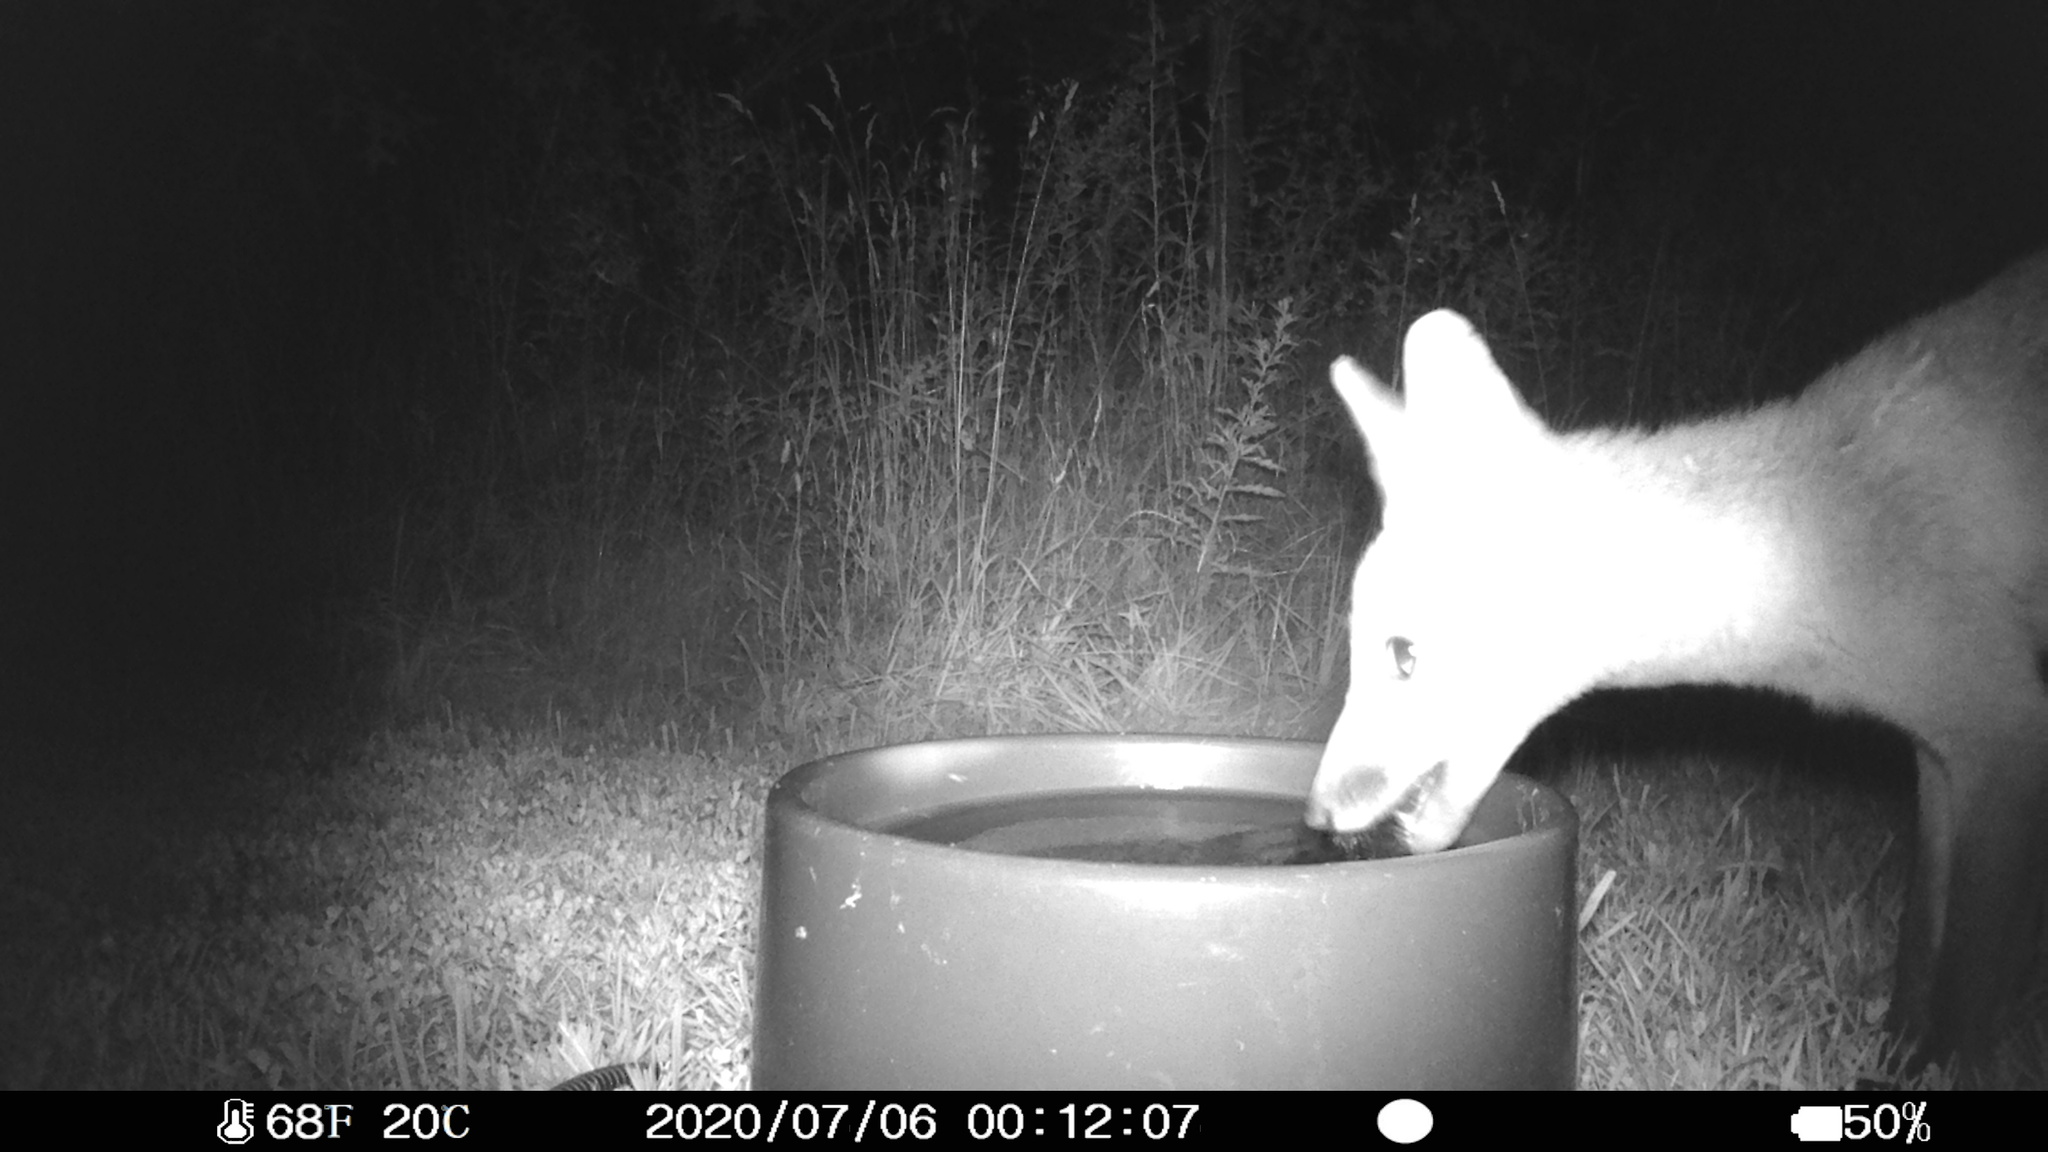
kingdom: Animalia
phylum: Chordata
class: Mammalia
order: Carnivora
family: Canidae
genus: Vulpes
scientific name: Vulpes vulpes
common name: Red fox
